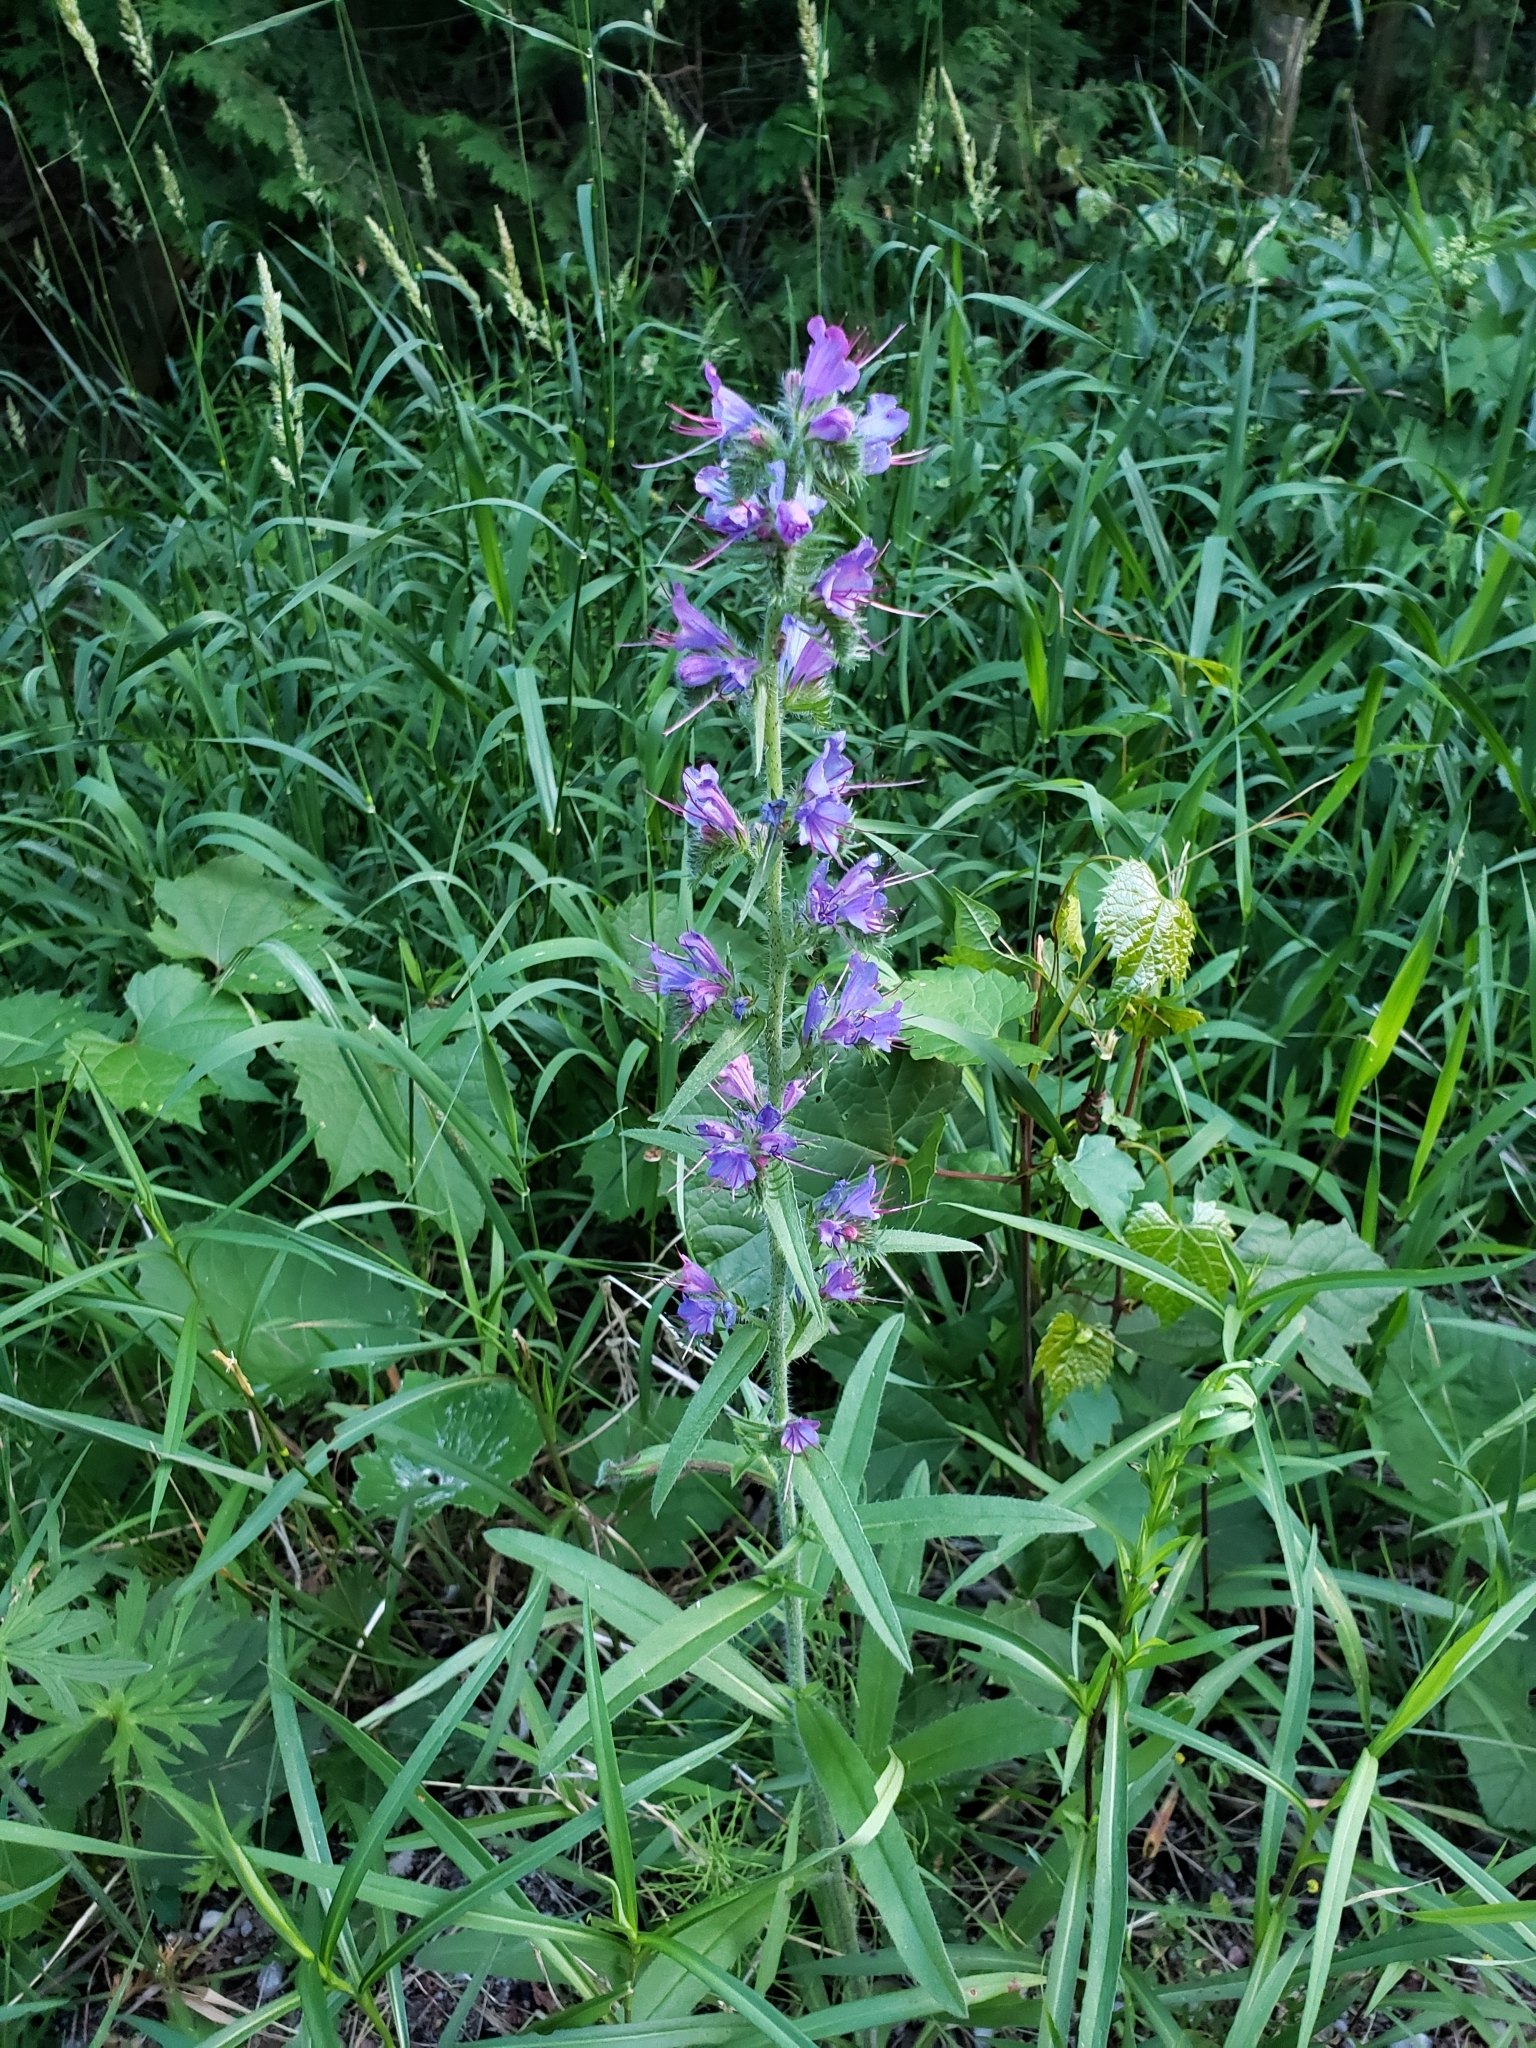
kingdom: Plantae
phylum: Tracheophyta
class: Magnoliopsida
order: Boraginales
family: Boraginaceae
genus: Echium
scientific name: Echium vulgare
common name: Common viper's bugloss
